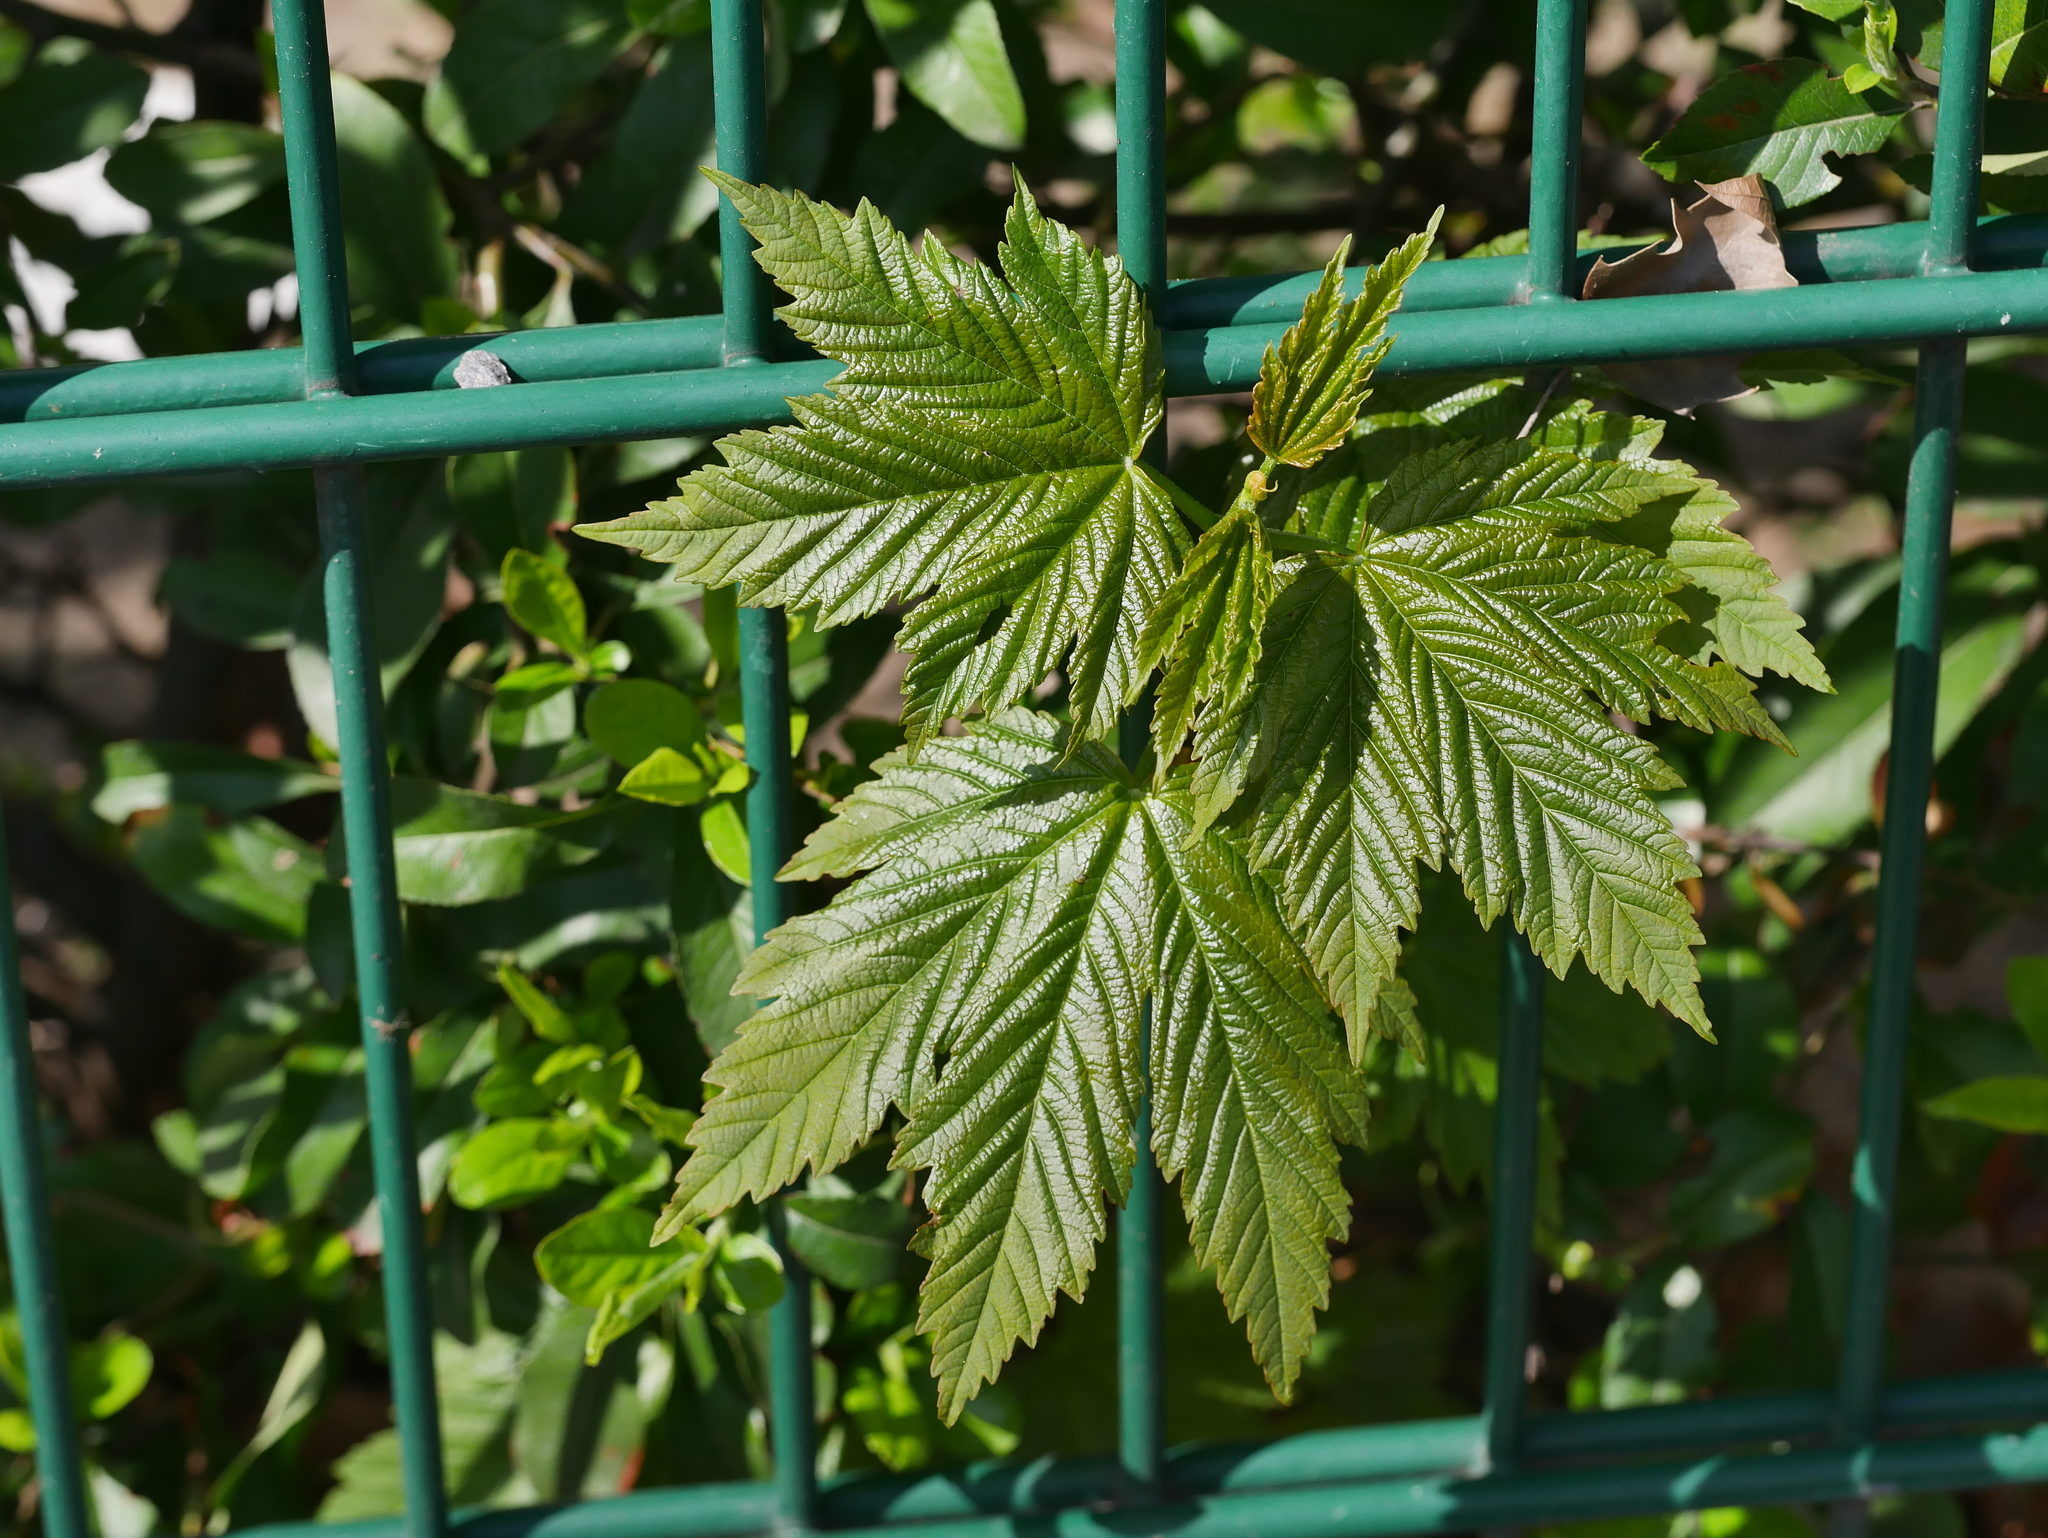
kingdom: Plantae
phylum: Tracheophyta
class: Magnoliopsida
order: Sapindales
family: Sapindaceae
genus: Acer
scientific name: Acer pseudoplatanus
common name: Sycamore
